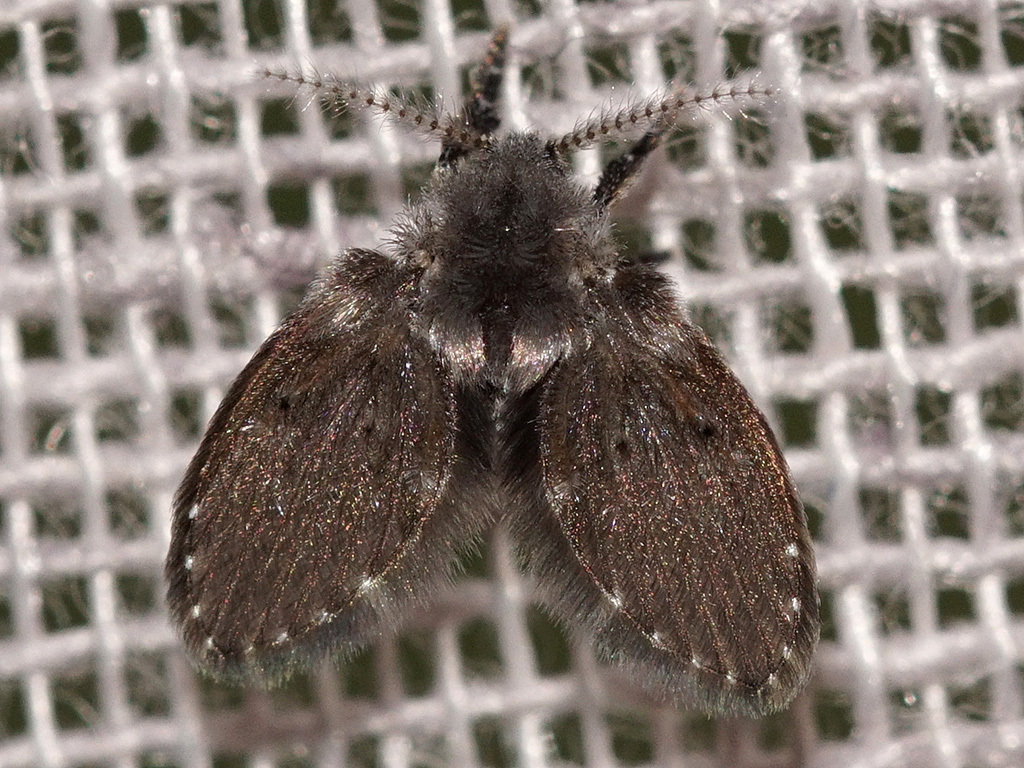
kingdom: Animalia
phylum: Arthropoda
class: Insecta
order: Diptera
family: Psychodidae
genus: Clogmia
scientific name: Clogmia albipunctatus
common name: White-spotted moth fly
